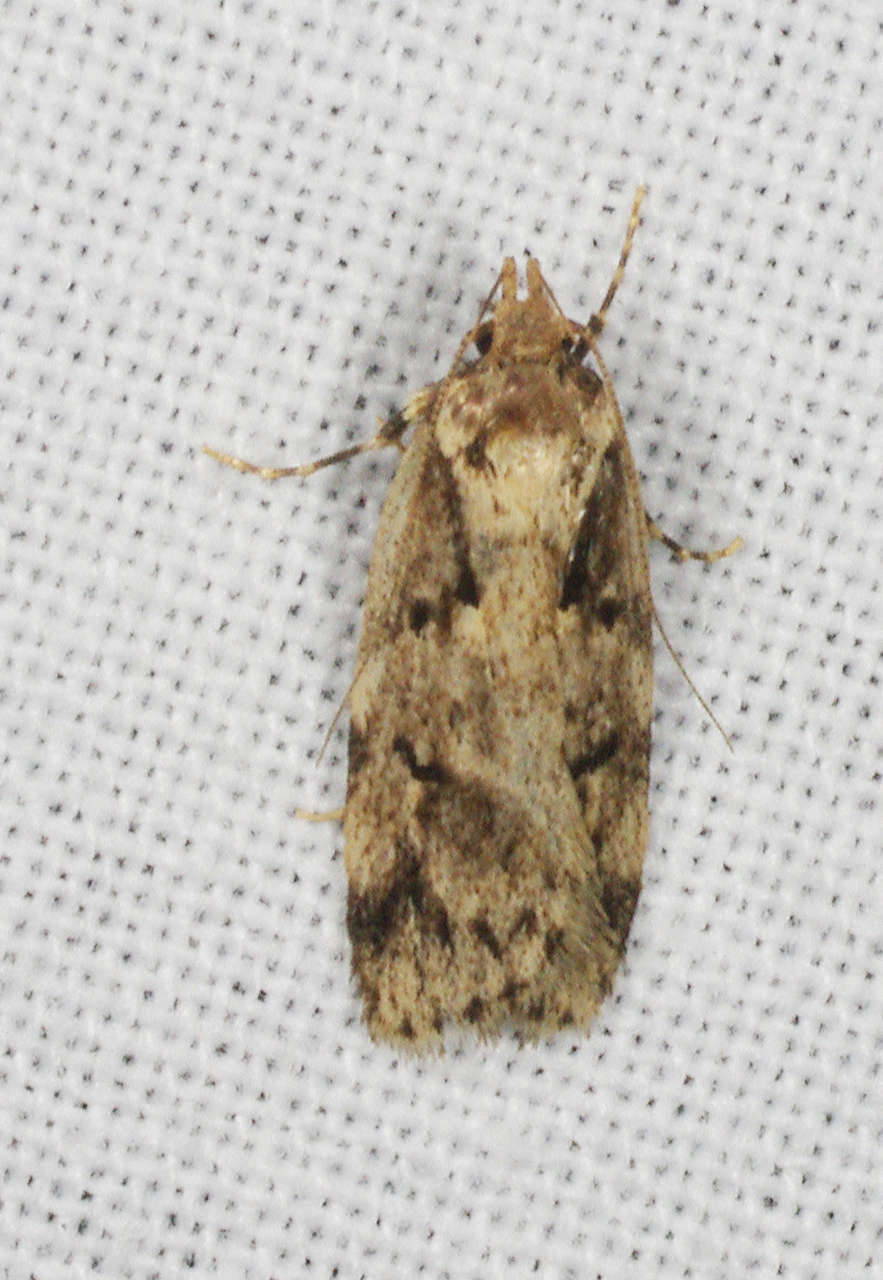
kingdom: Animalia
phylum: Arthropoda
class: Insecta
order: Lepidoptera
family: Oecophoridae
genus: Barea
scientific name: Barea semocausta
